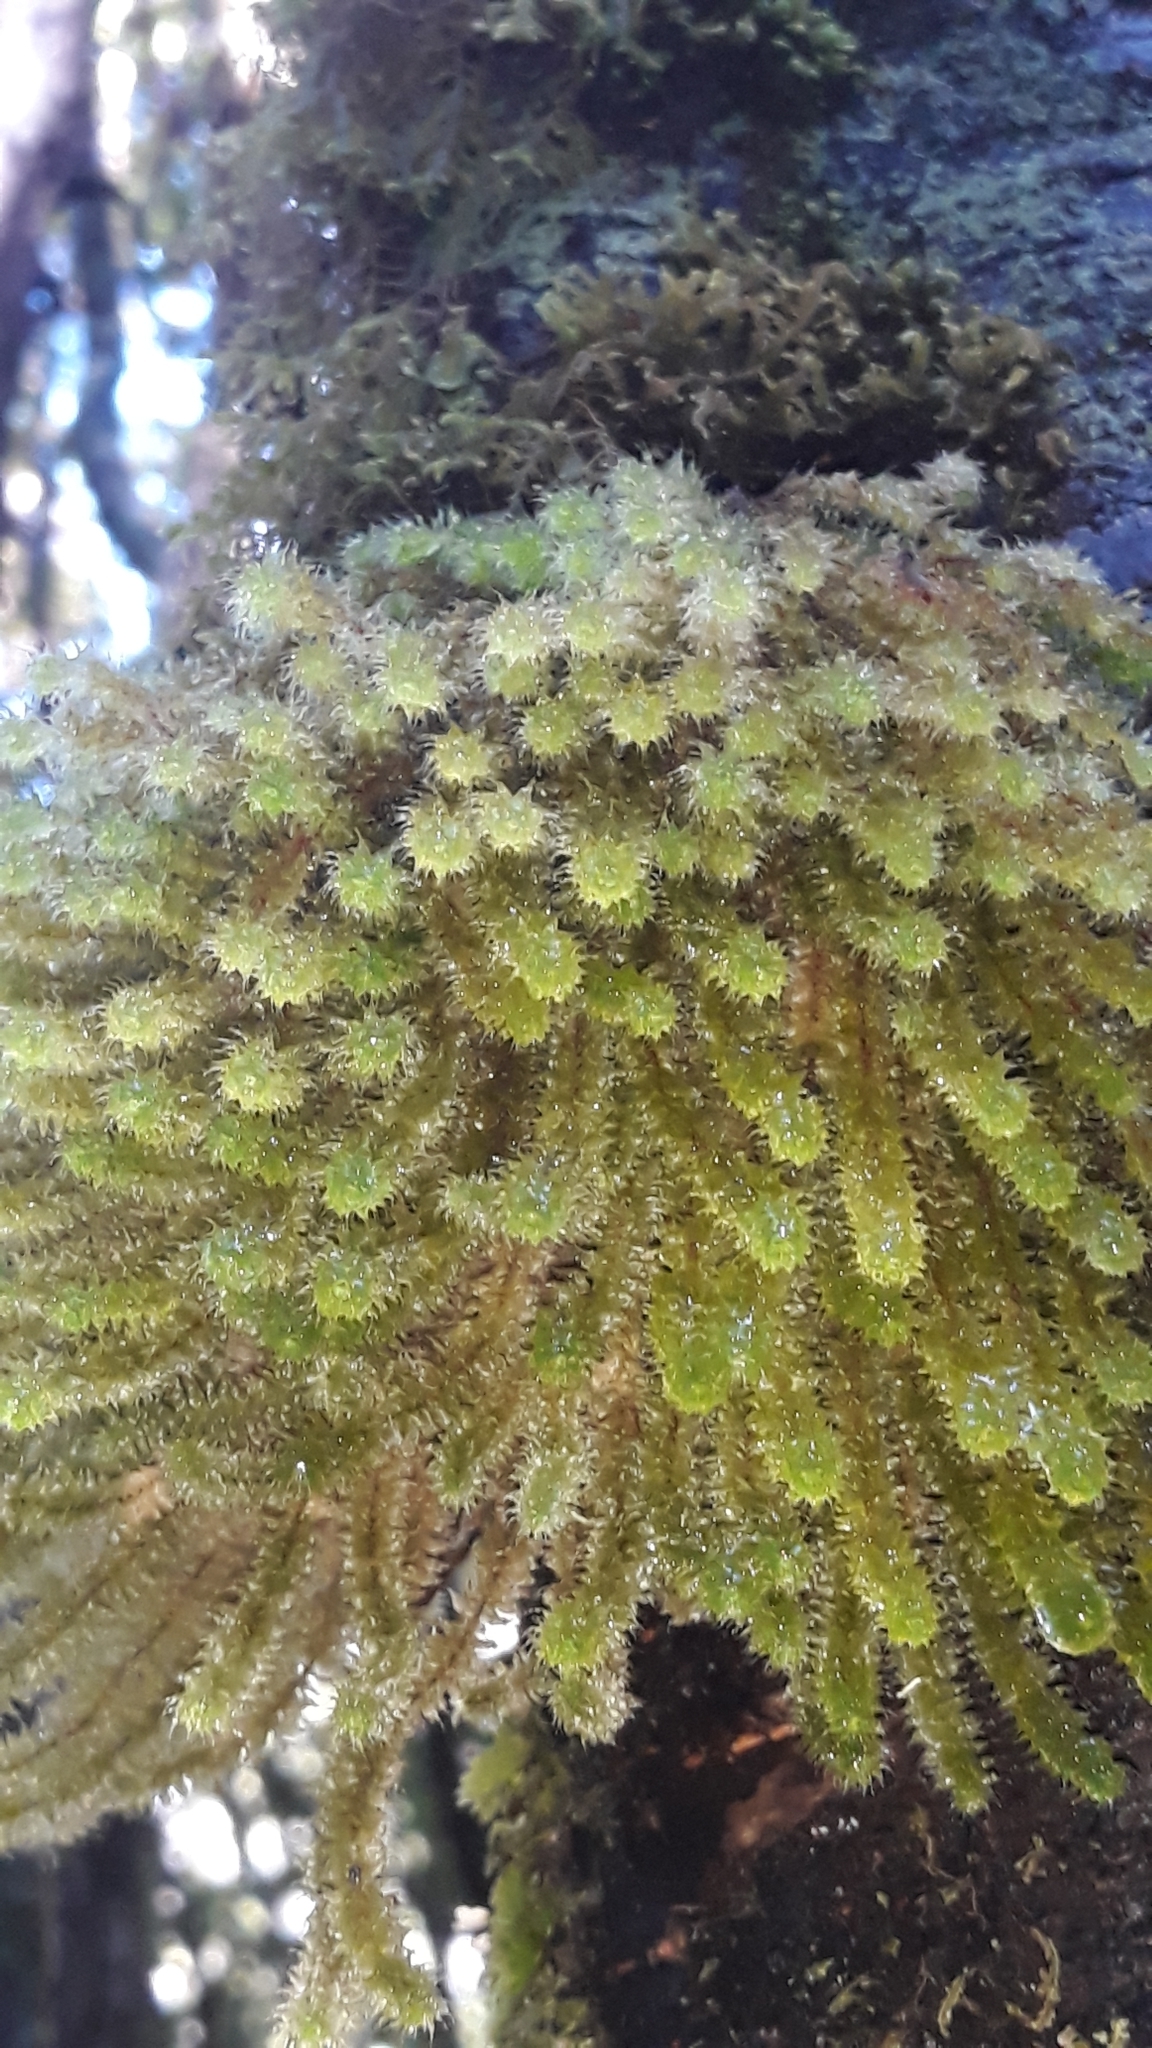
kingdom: Plantae
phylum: Bryophyta
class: Bryopsida
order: Ptychomniales
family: Ptychomniaceae
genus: Ptychomnion
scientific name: Ptychomnion aciculare
